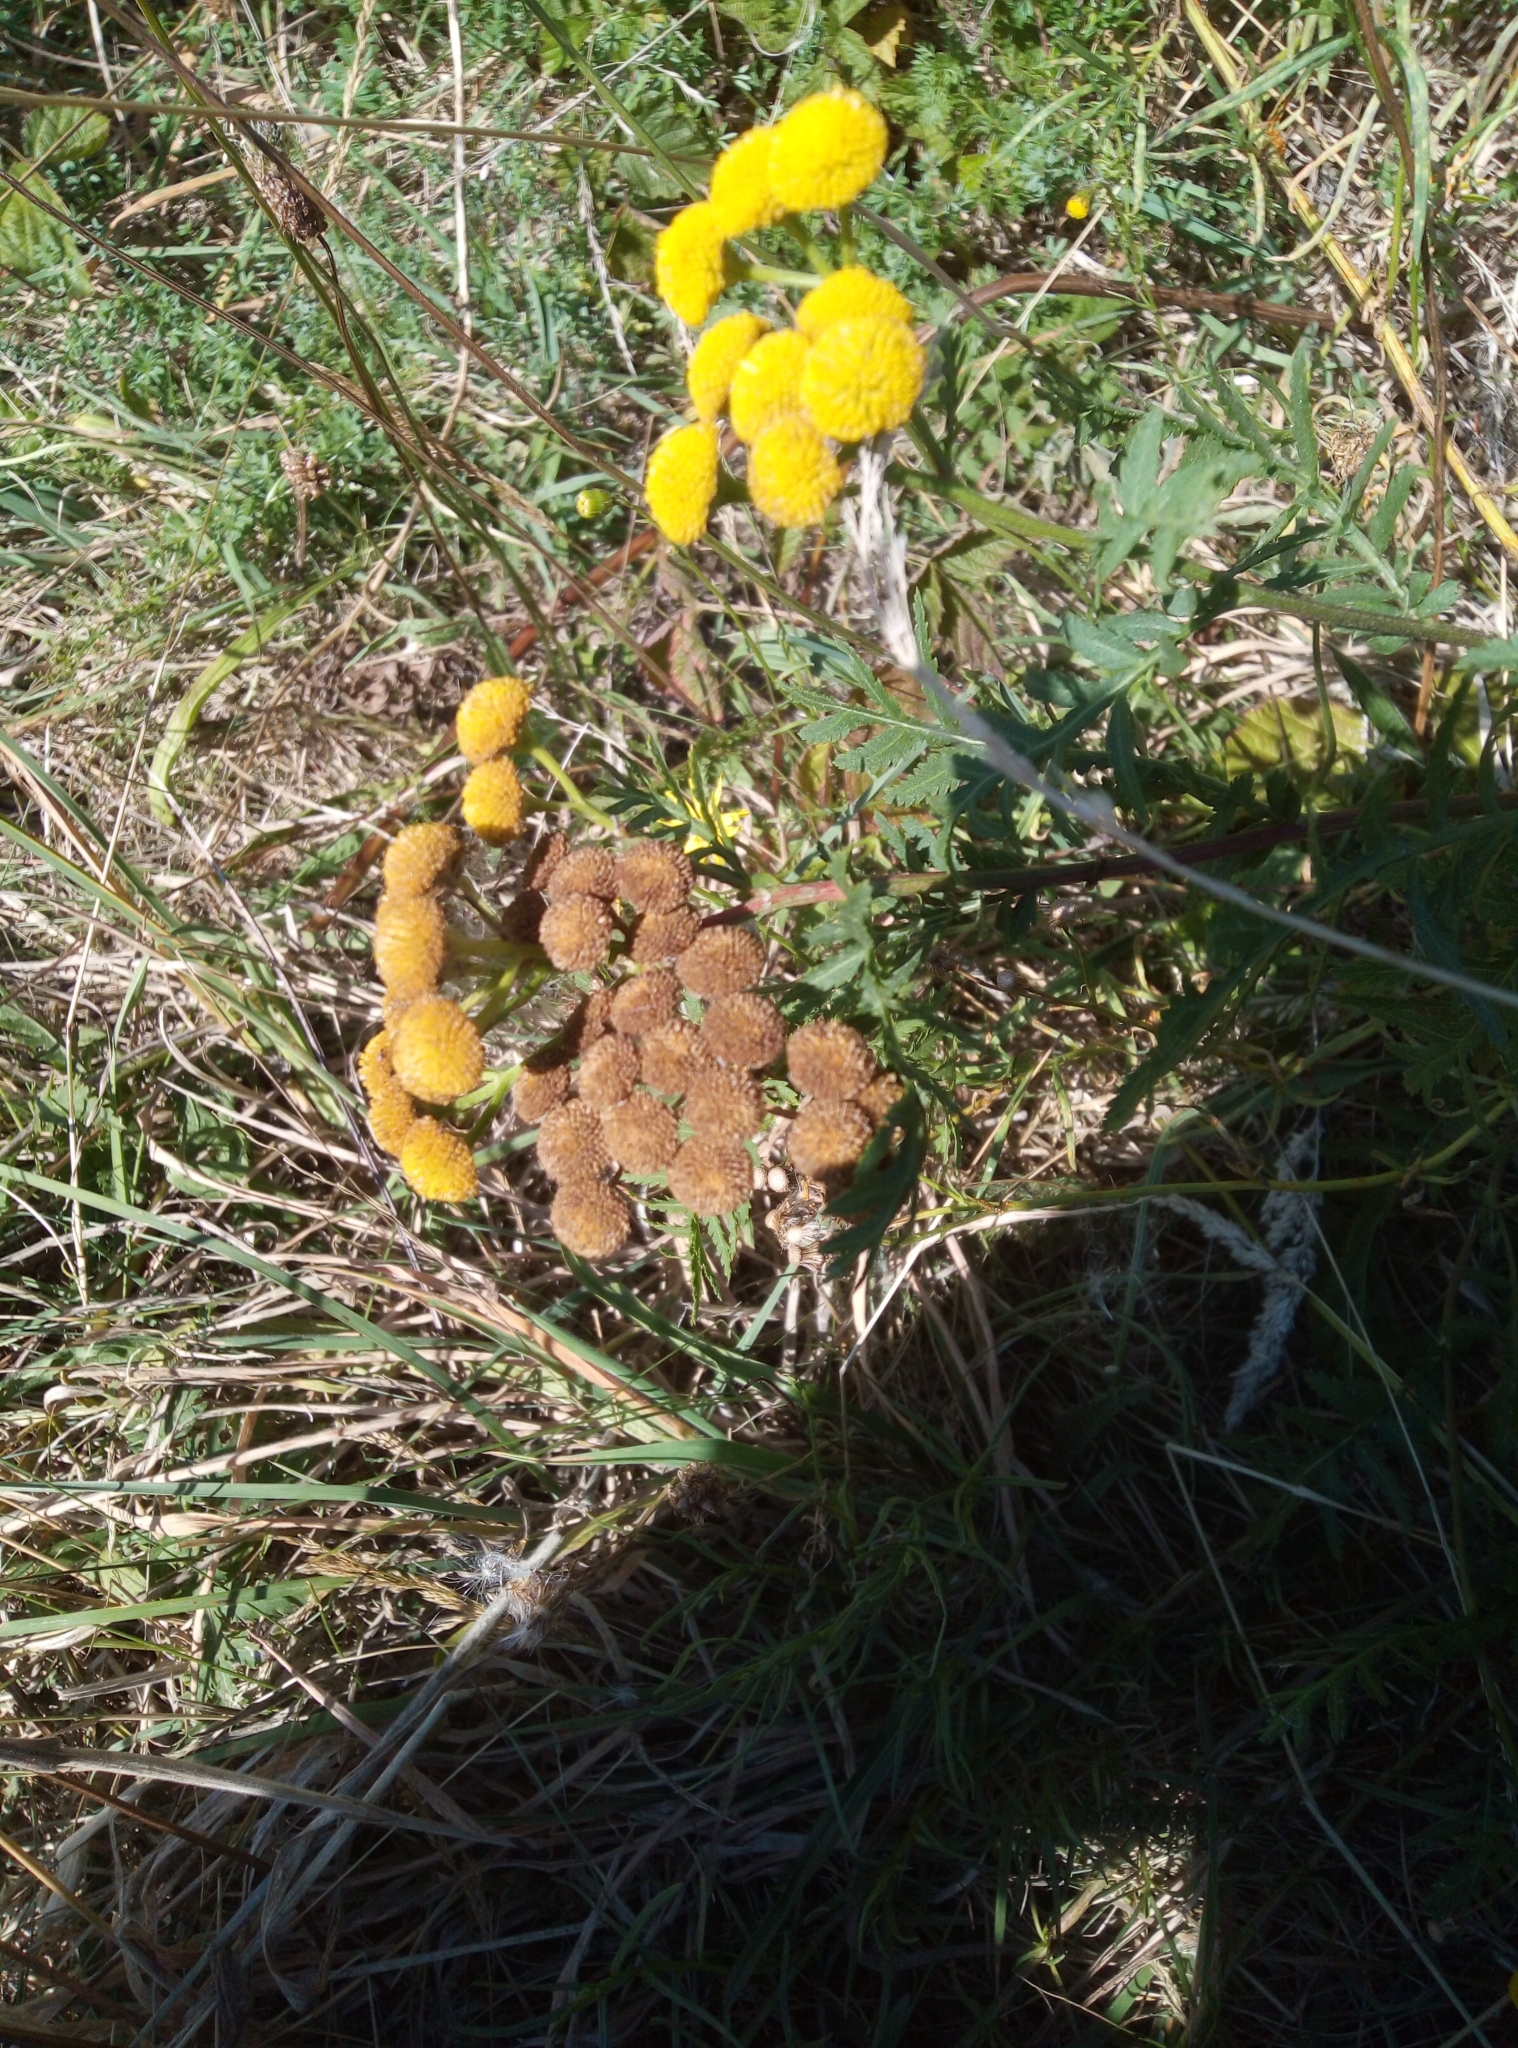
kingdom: Plantae
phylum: Tracheophyta
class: Magnoliopsida
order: Asterales
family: Asteraceae
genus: Tanacetum
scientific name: Tanacetum vulgare
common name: Common tansy
